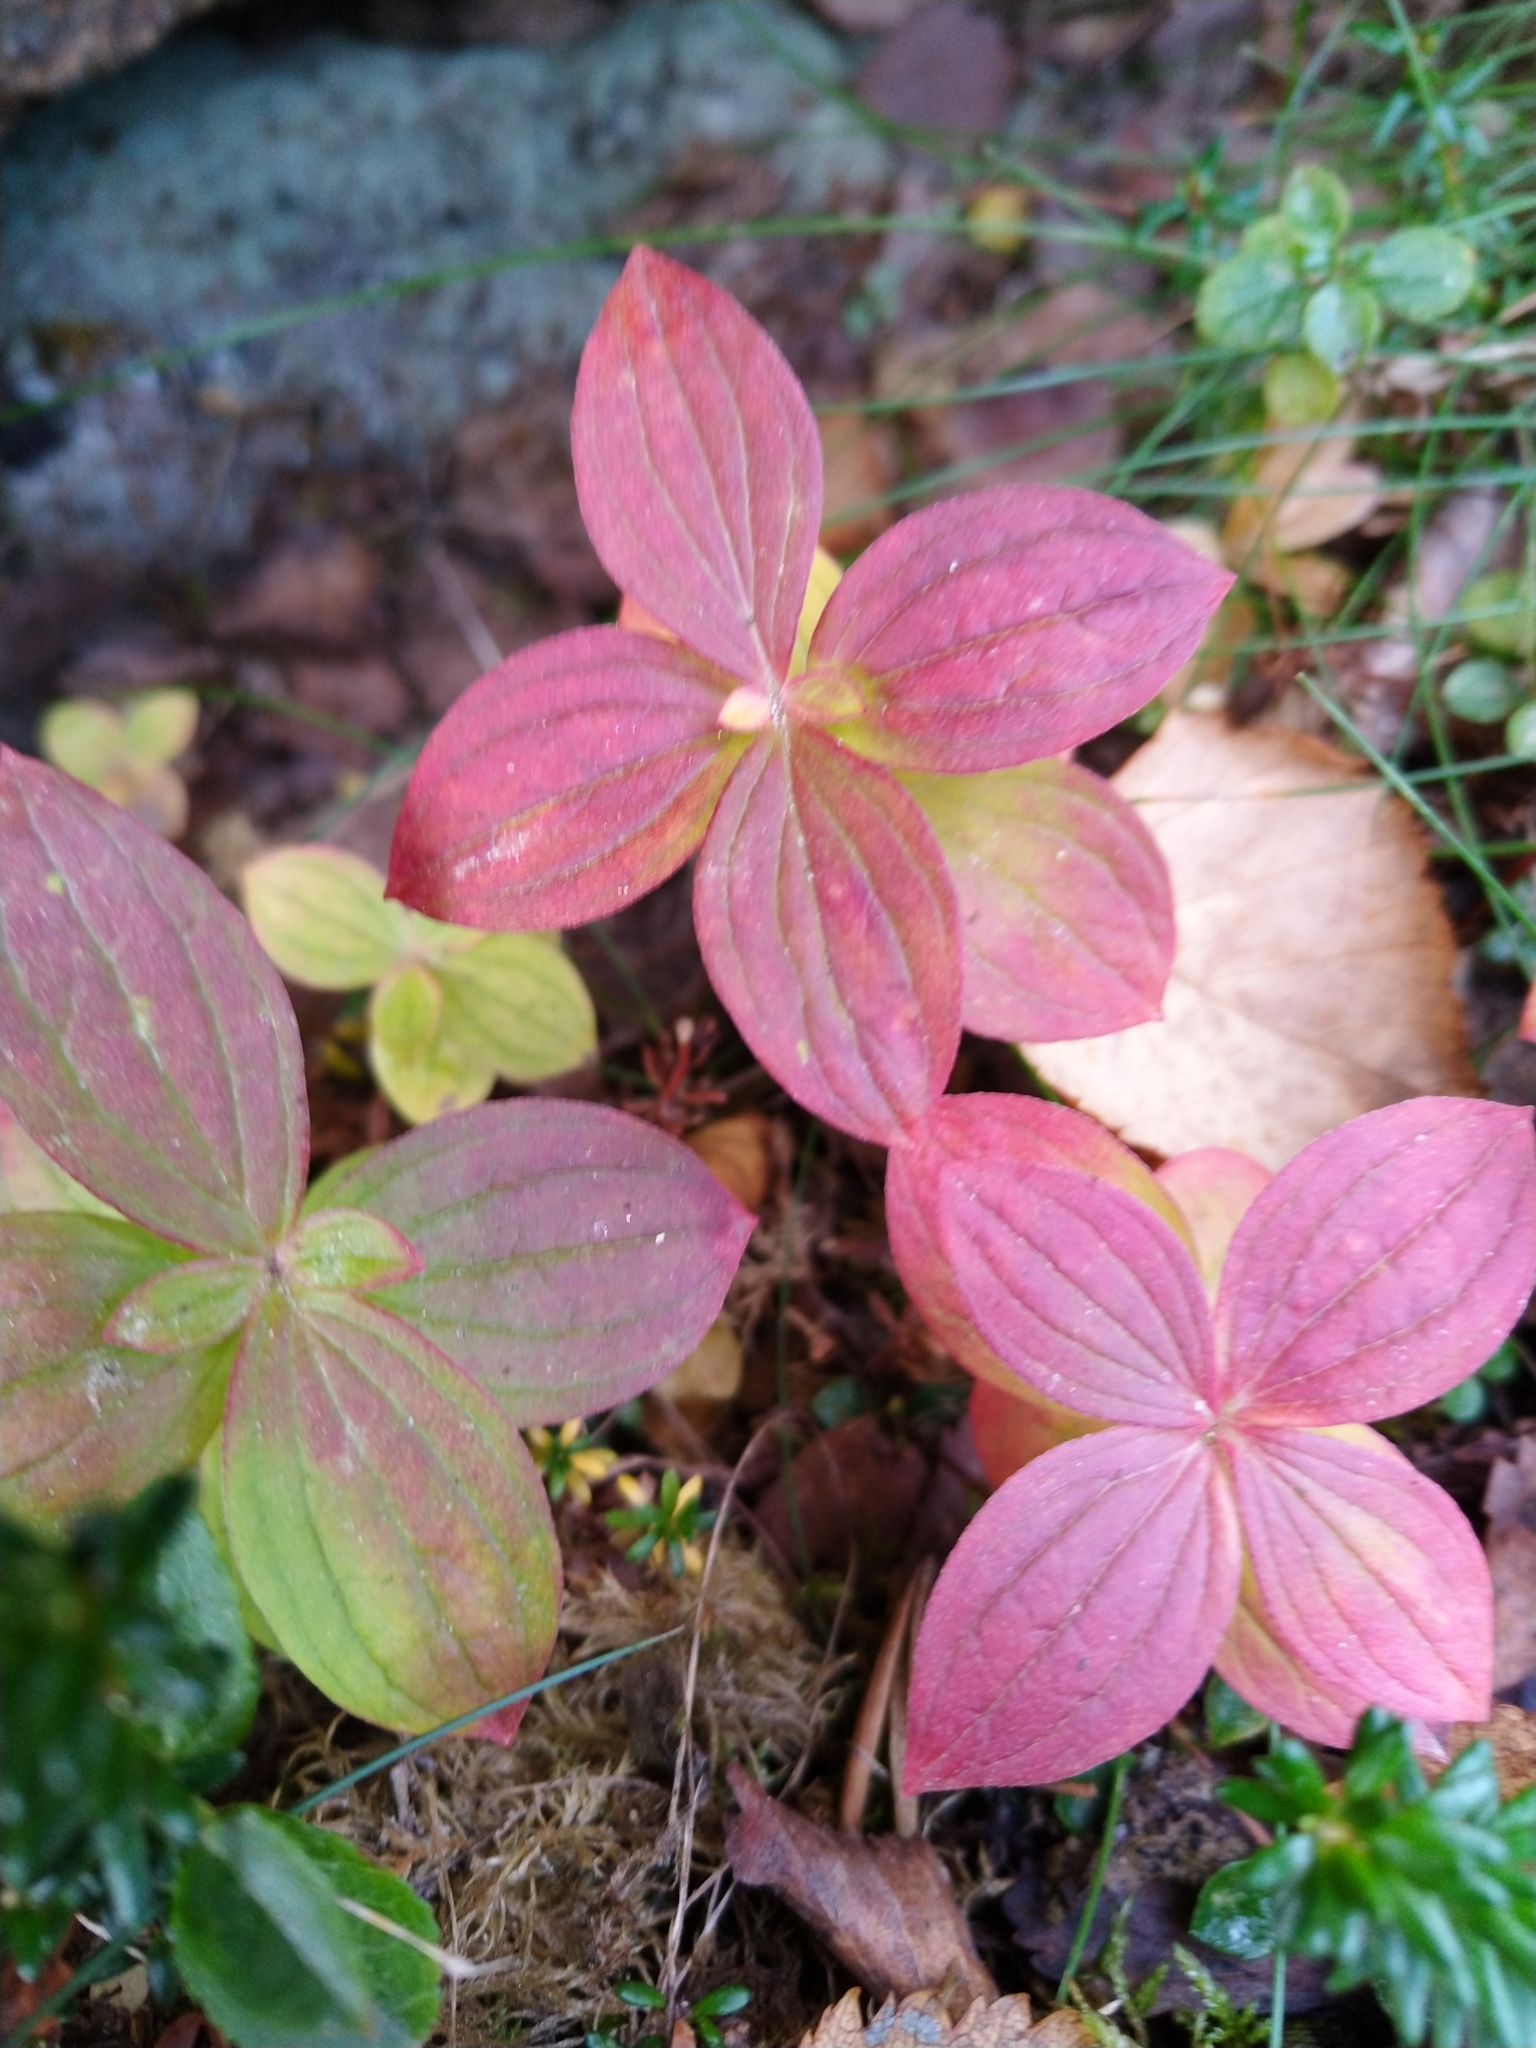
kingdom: Plantae
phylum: Tracheophyta
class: Magnoliopsida
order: Cornales
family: Cornaceae
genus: Cornus
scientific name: Cornus suecica
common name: Dwarf cornel
